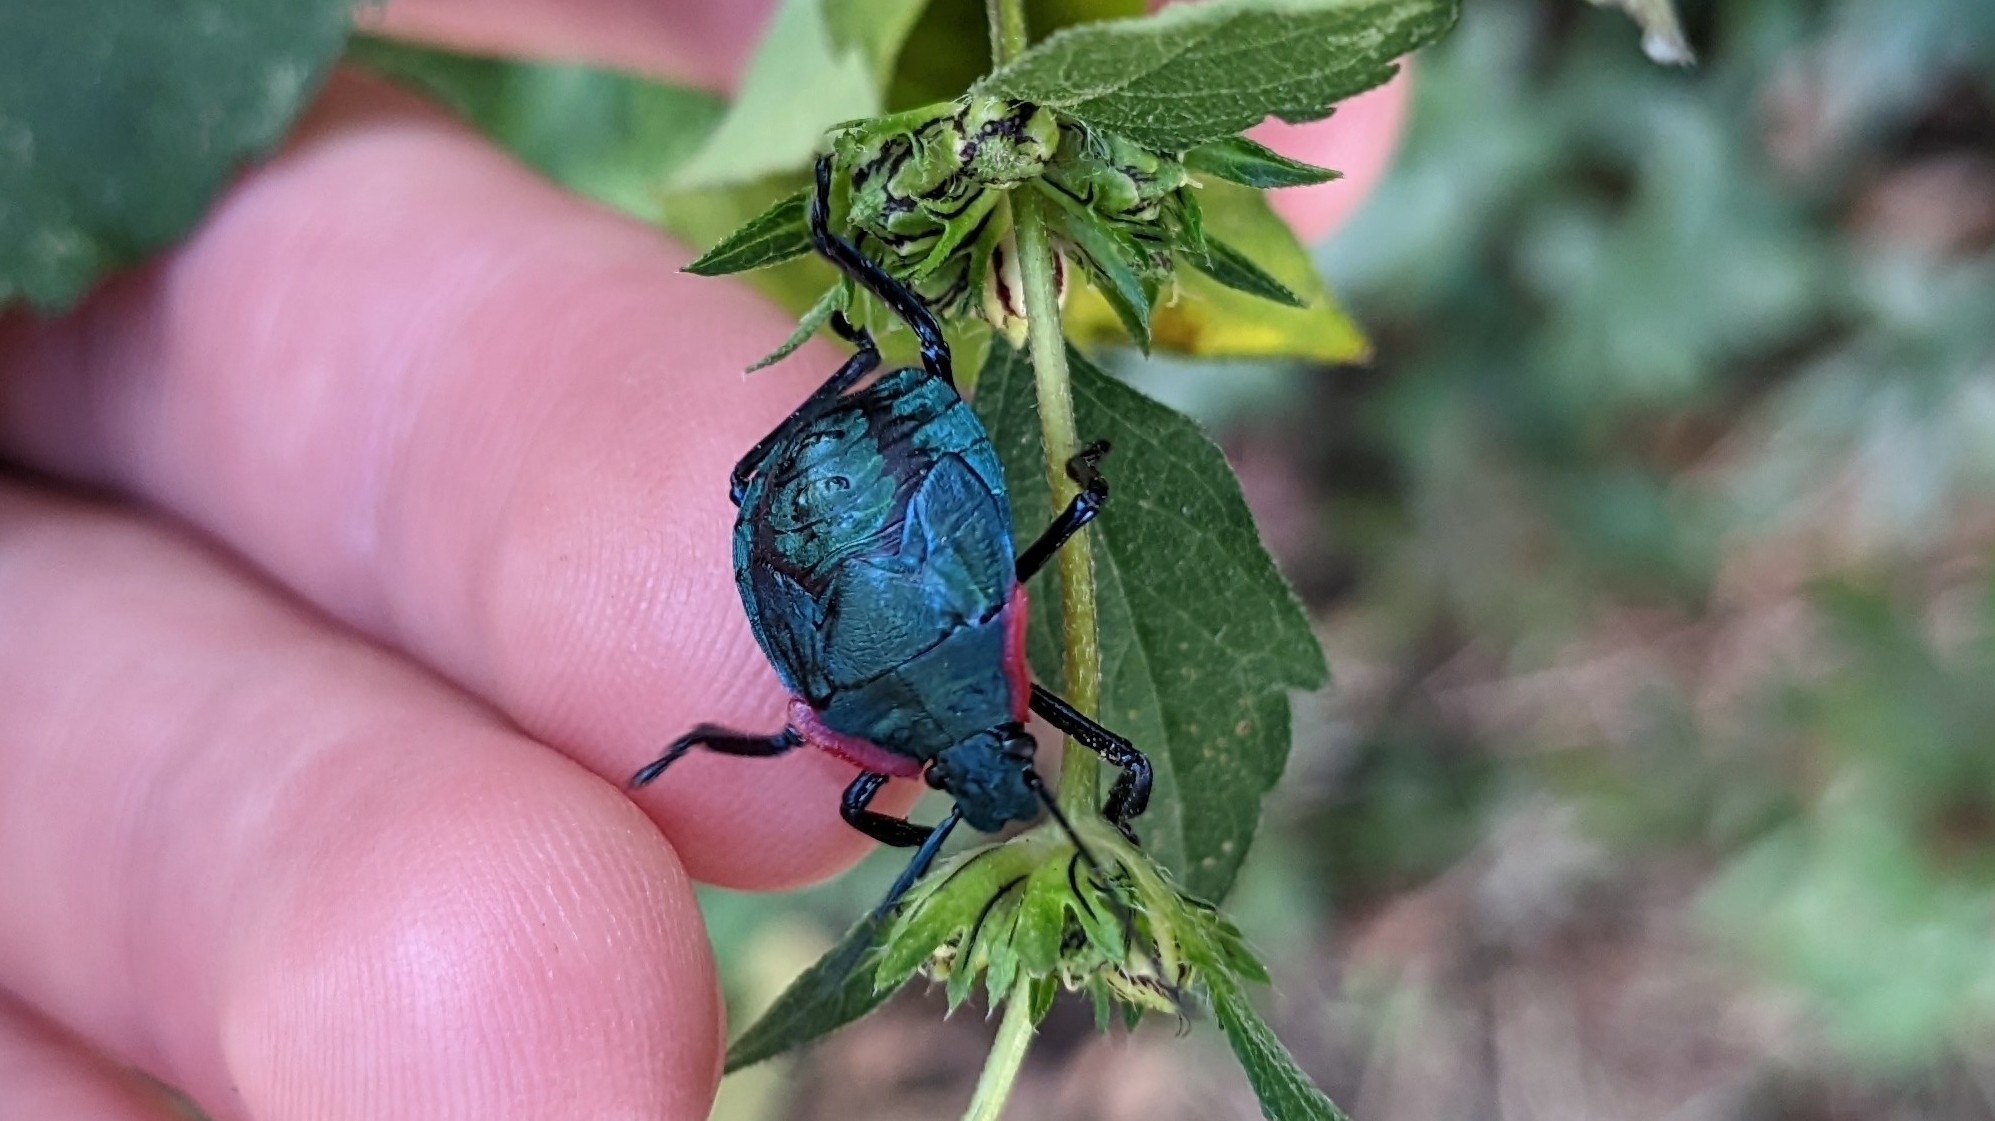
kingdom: Animalia
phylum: Arthropoda
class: Insecta
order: Hemiptera
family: Pentatomidae
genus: Alcaeorrhynchus
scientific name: Alcaeorrhynchus grandis
